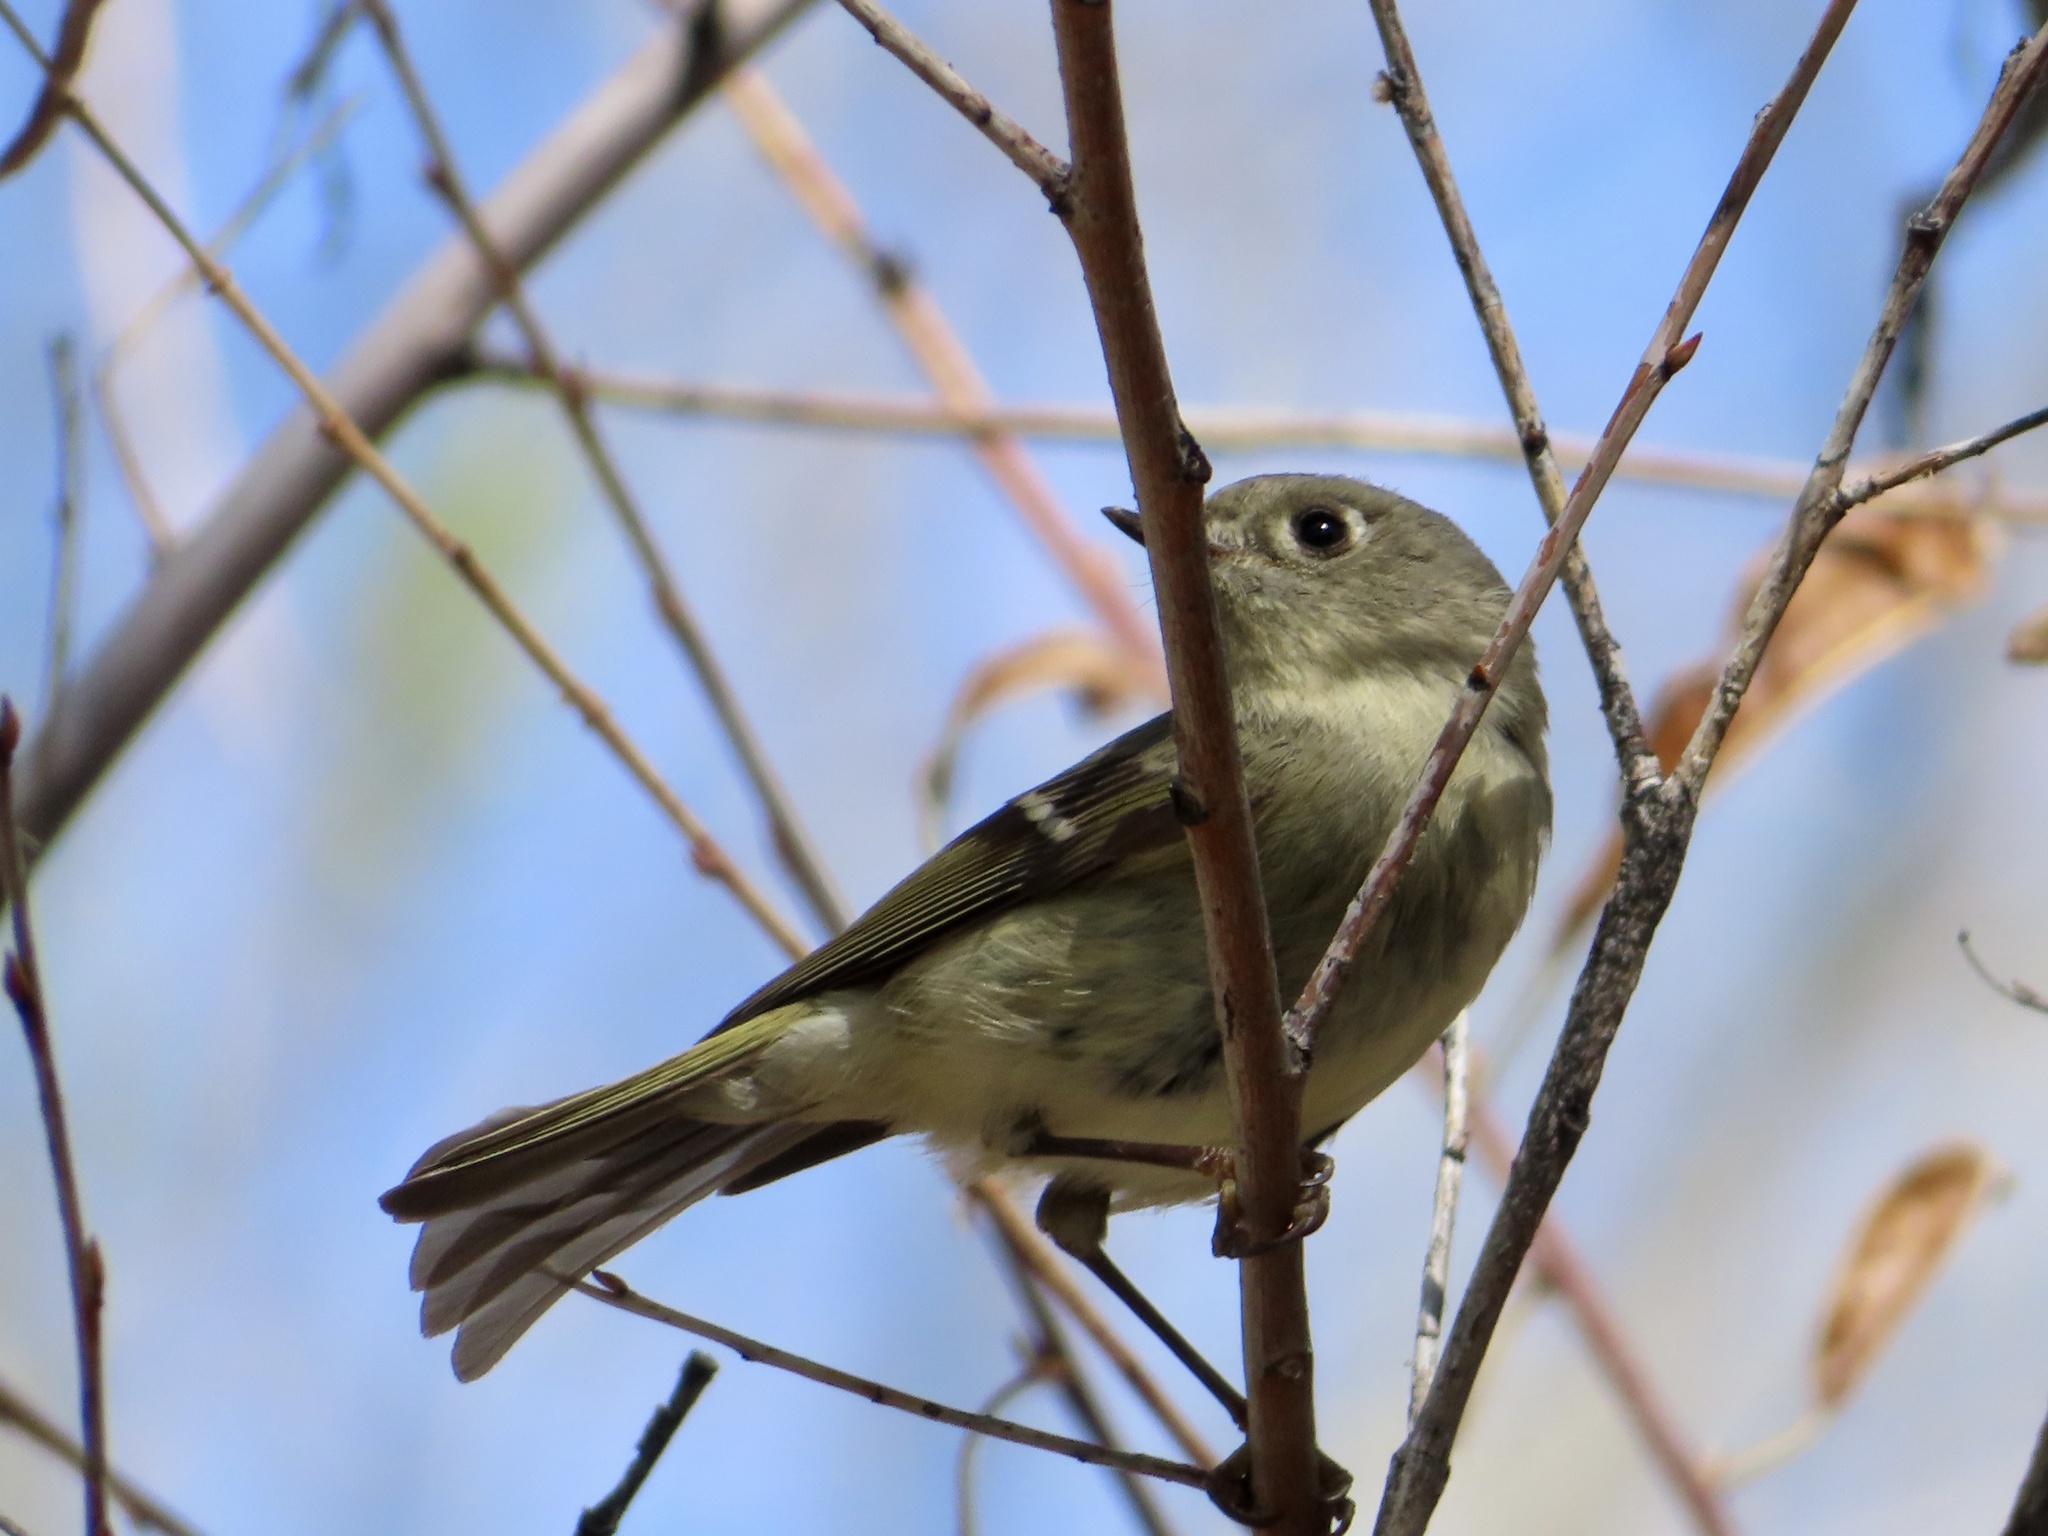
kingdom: Animalia
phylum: Chordata
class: Aves
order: Passeriformes
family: Regulidae
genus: Regulus
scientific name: Regulus calendula
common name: Ruby-crowned kinglet
